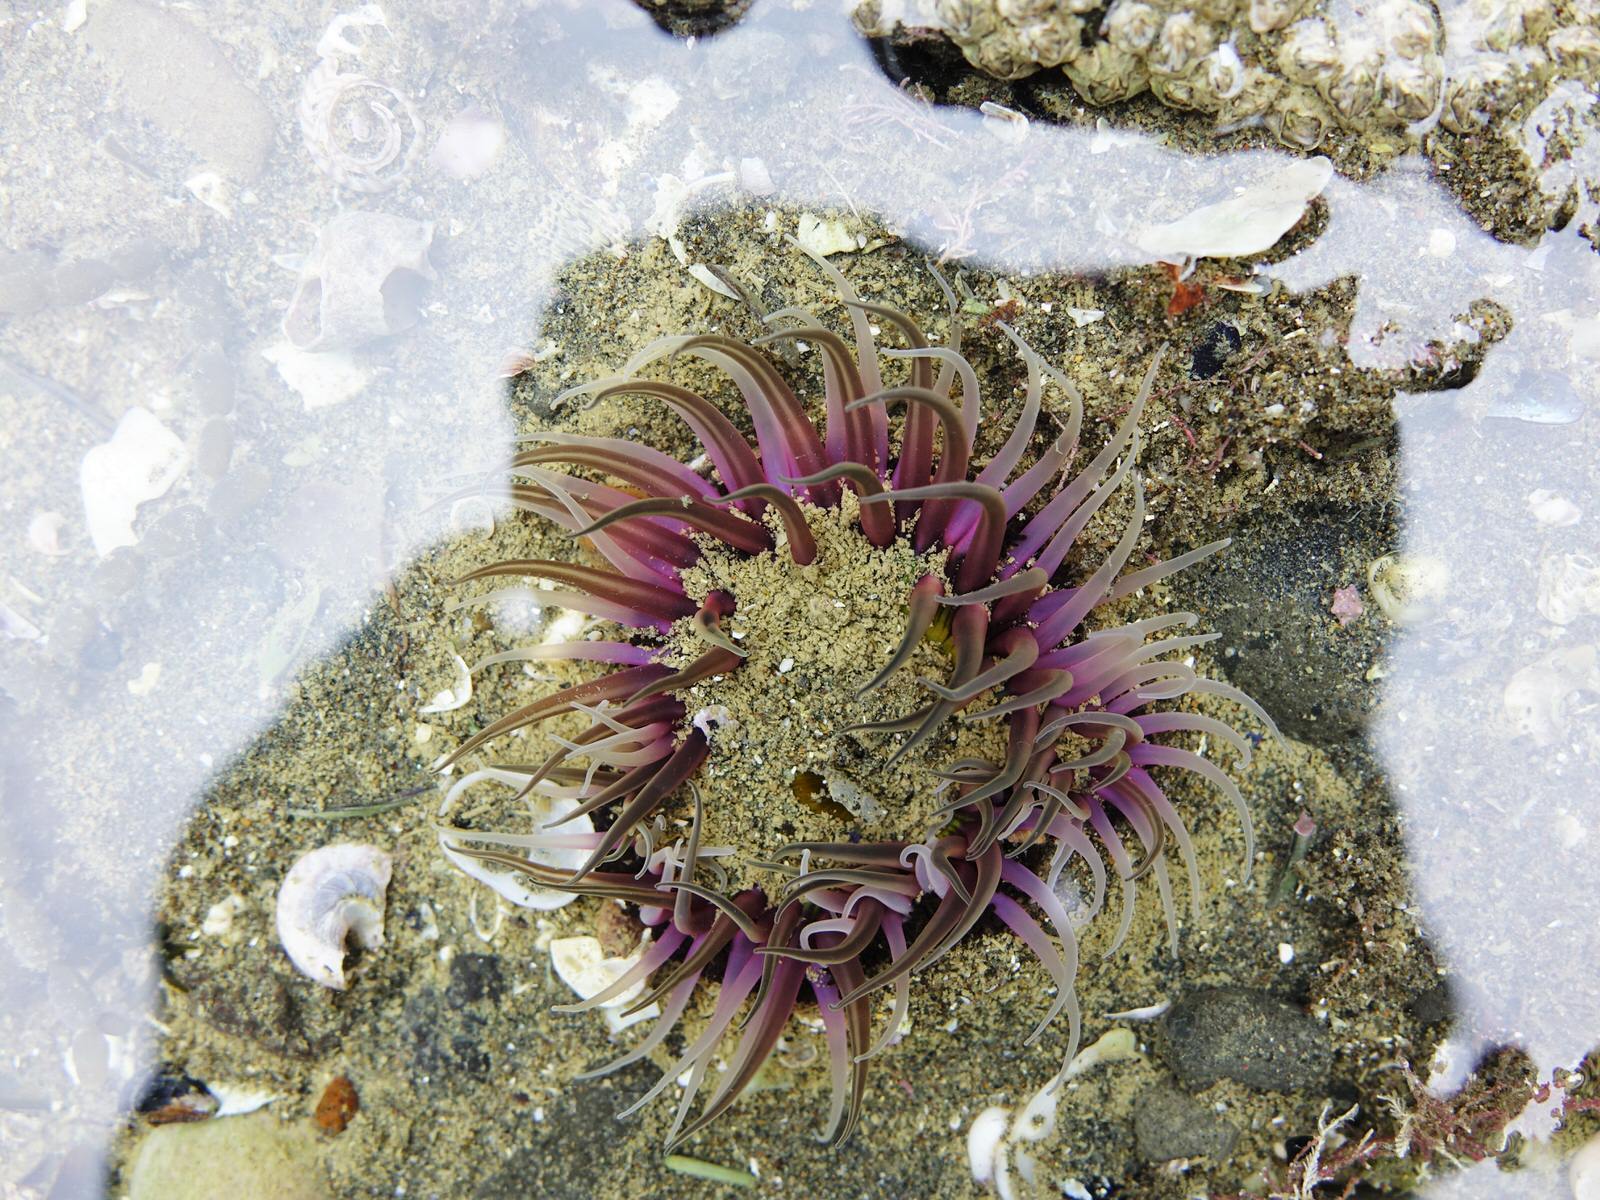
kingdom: Animalia
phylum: Cnidaria
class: Anthozoa
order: Actiniaria
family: Actiniidae
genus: Oulactis
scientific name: Oulactis magna
